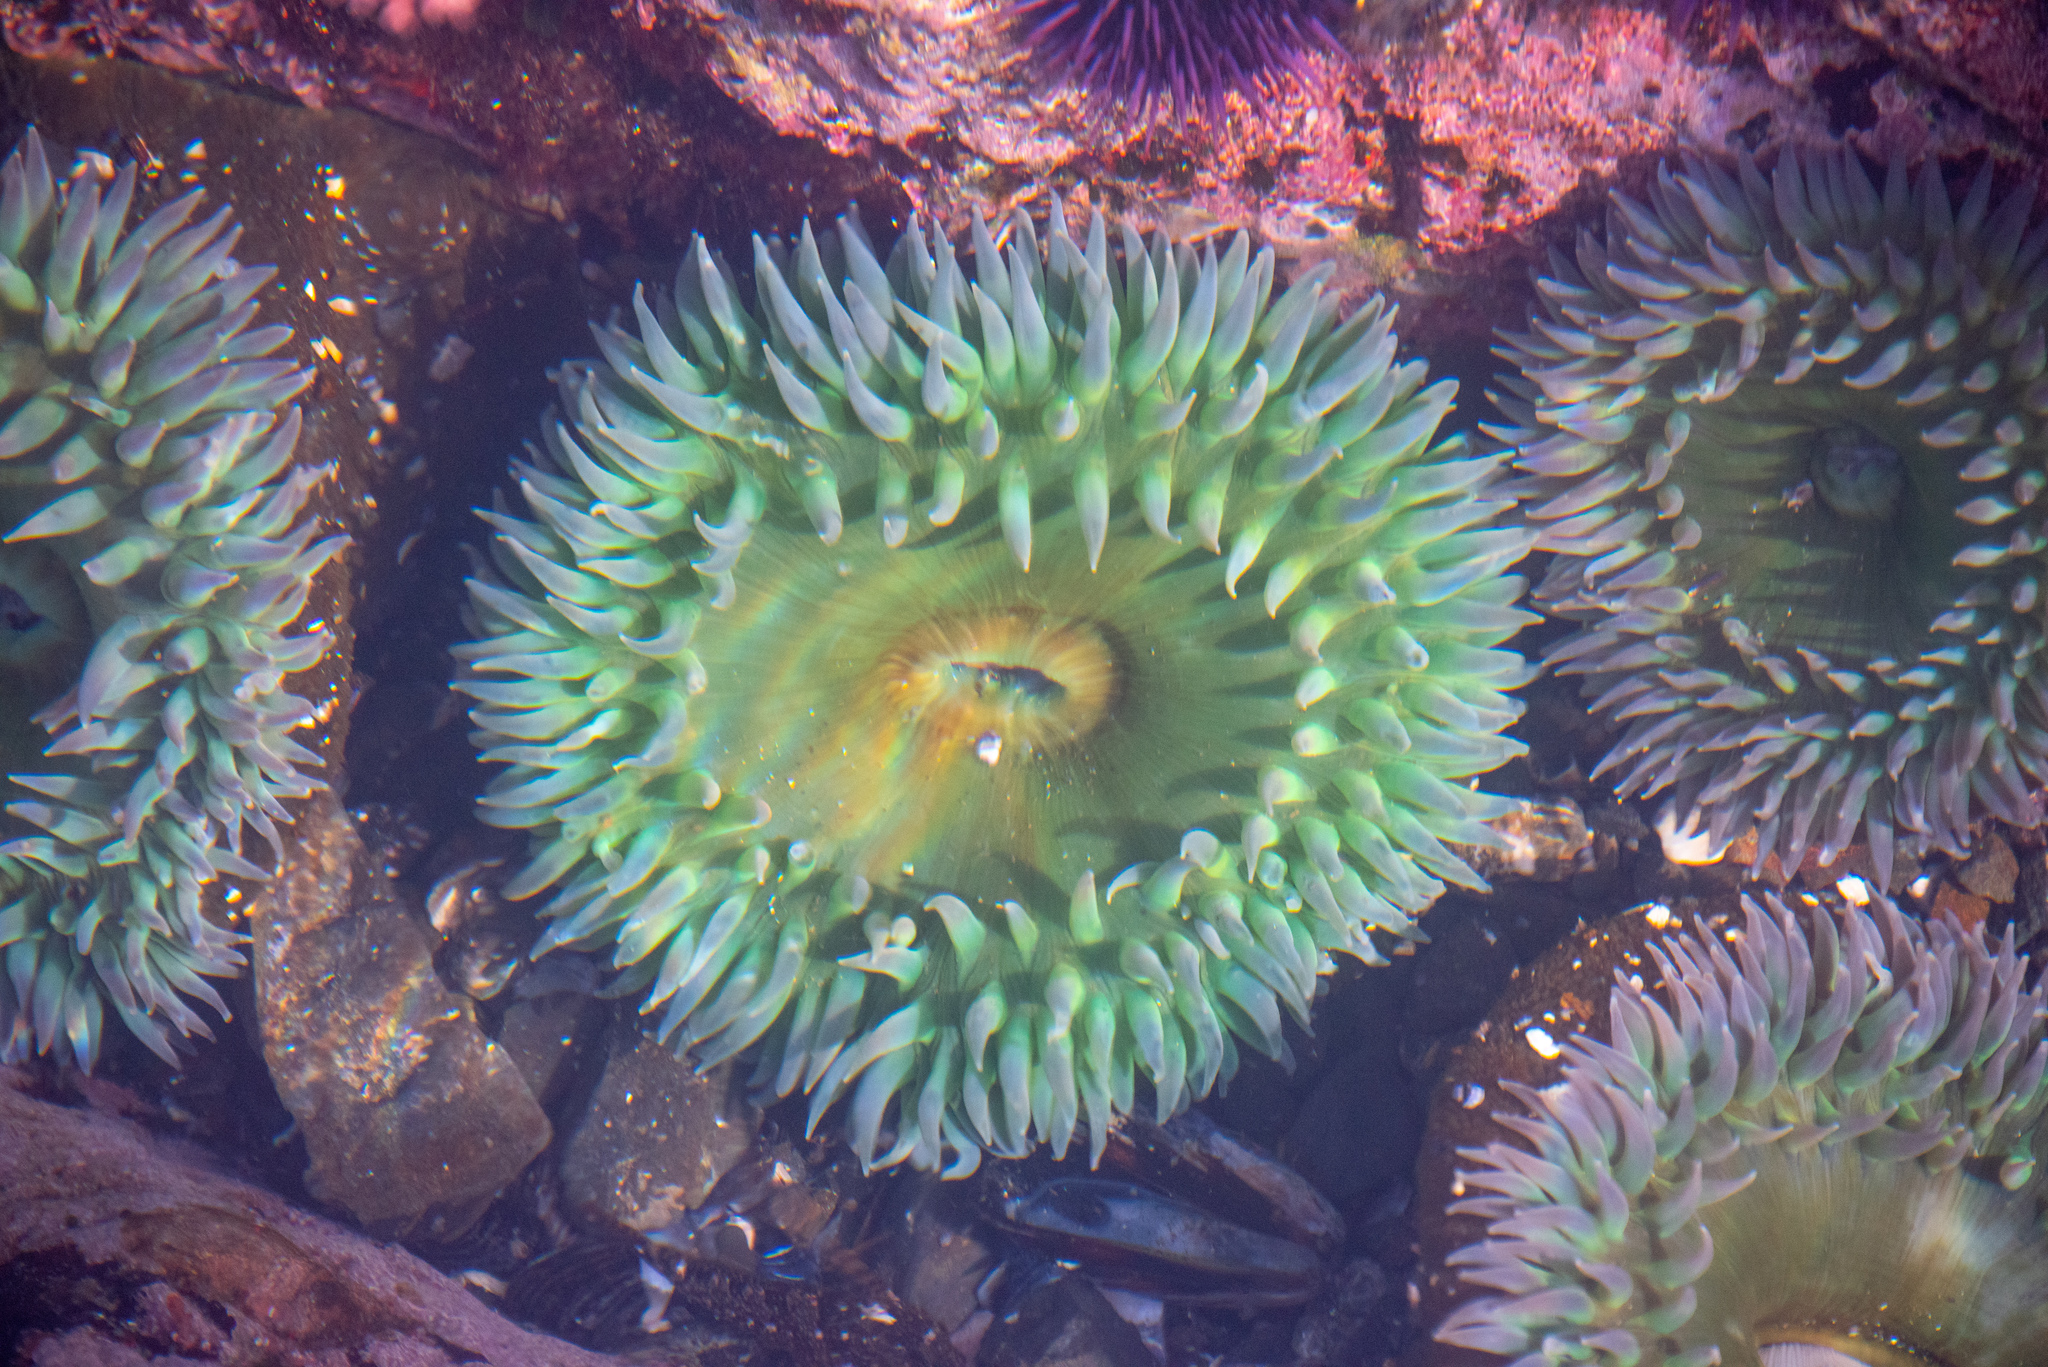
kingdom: Animalia
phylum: Cnidaria
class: Anthozoa
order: Actiniaria
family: Actiniidae
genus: Anthopleura
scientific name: Anthopleura xanthogrammica
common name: Giant green anemone
